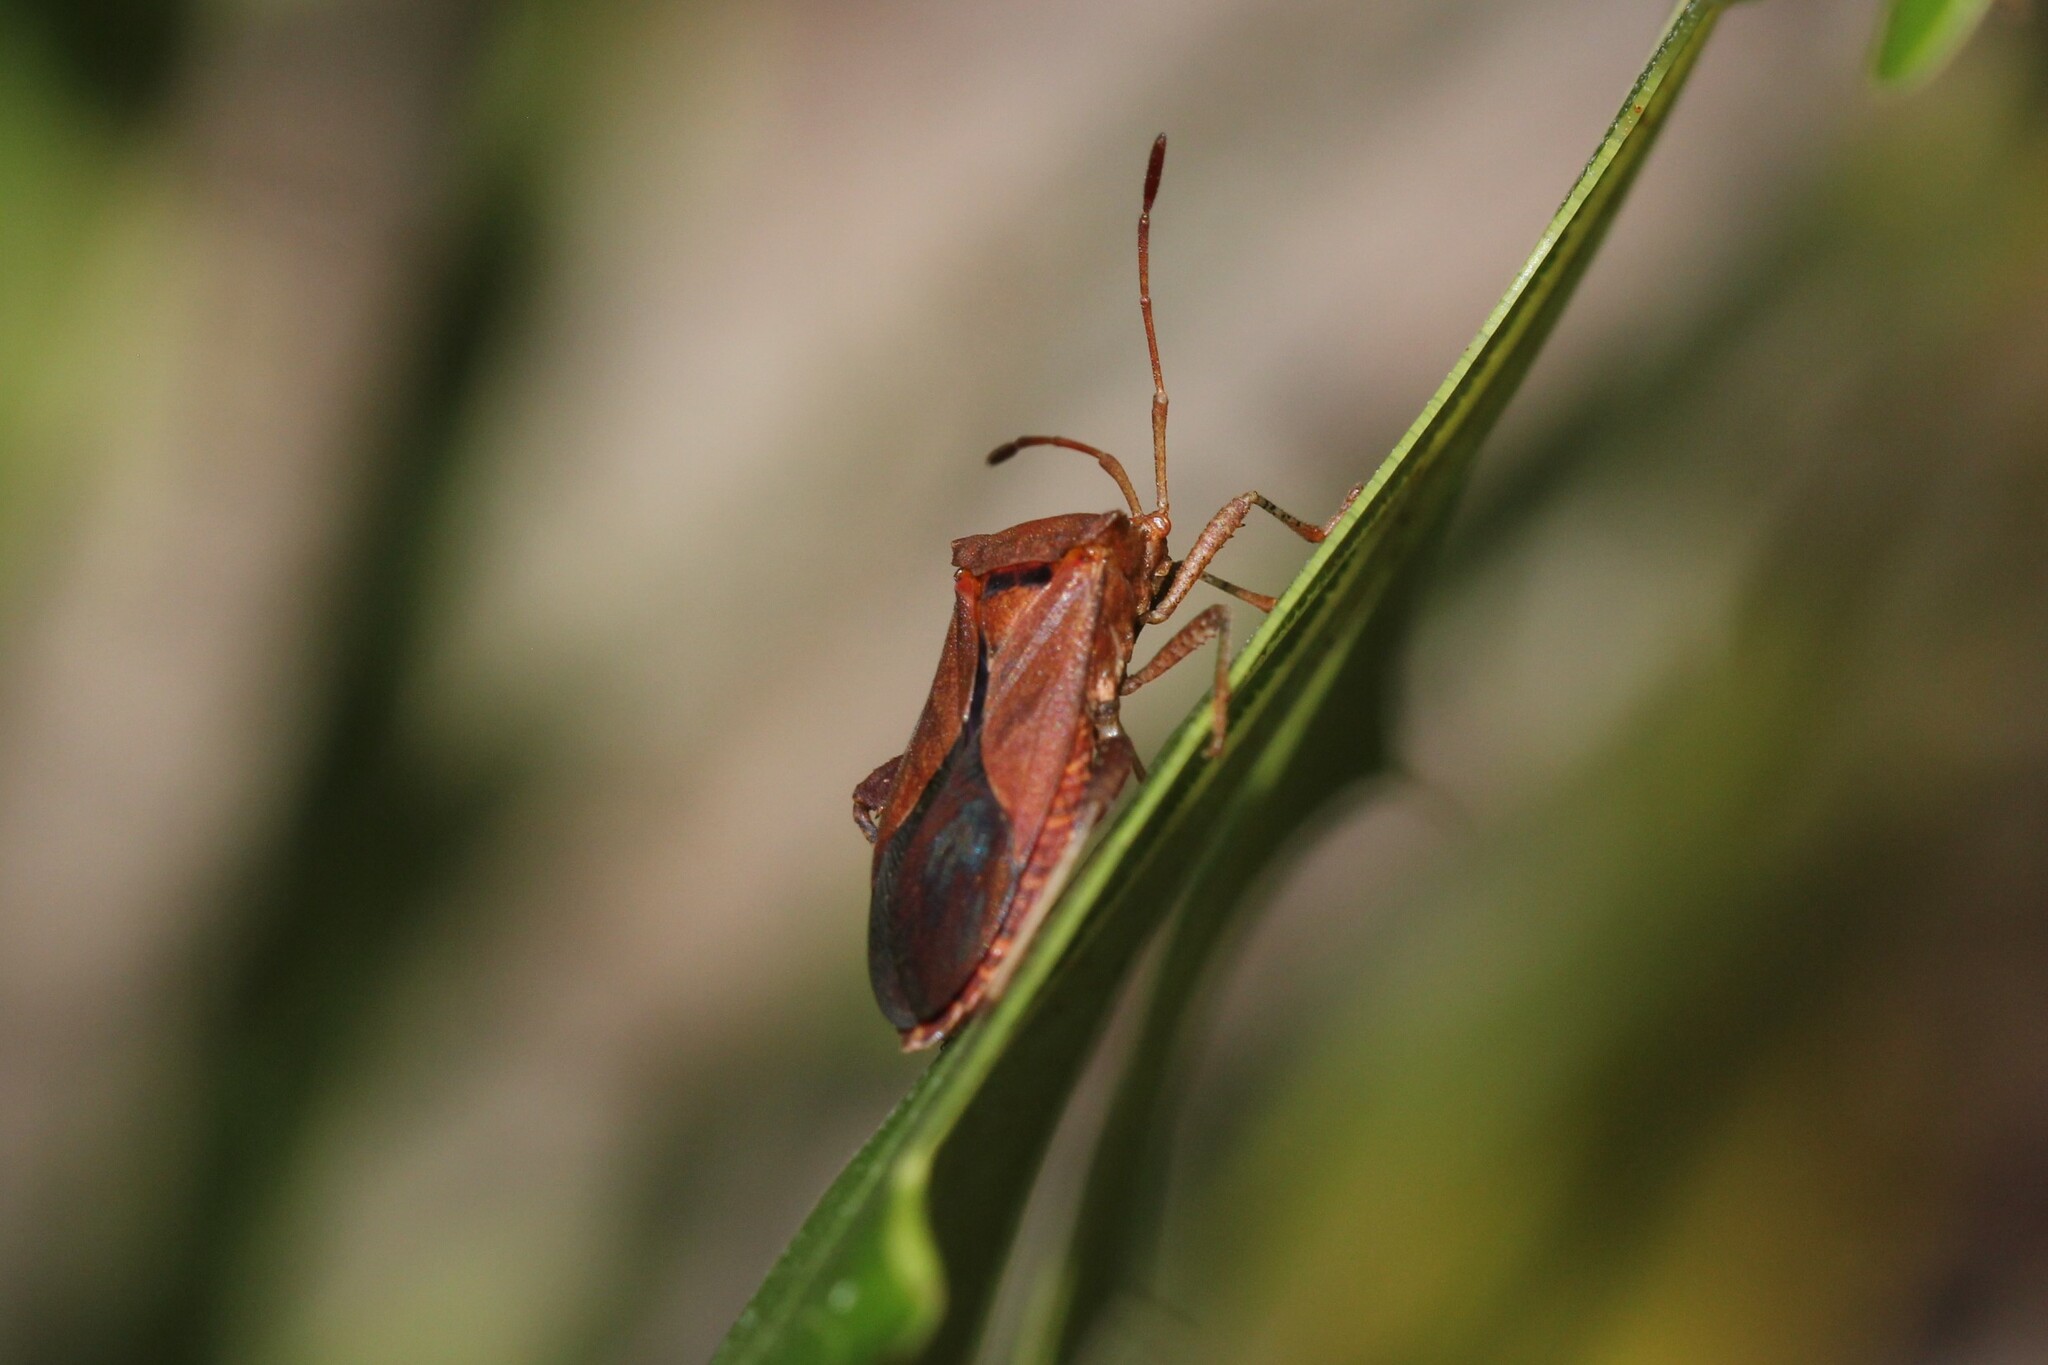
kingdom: Animalia
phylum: Arthropoda
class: Insecta
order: Hemiptera
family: Coreidae
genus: Euthochtha
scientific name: Euthochtha galeator
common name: Helmeted squash bug
